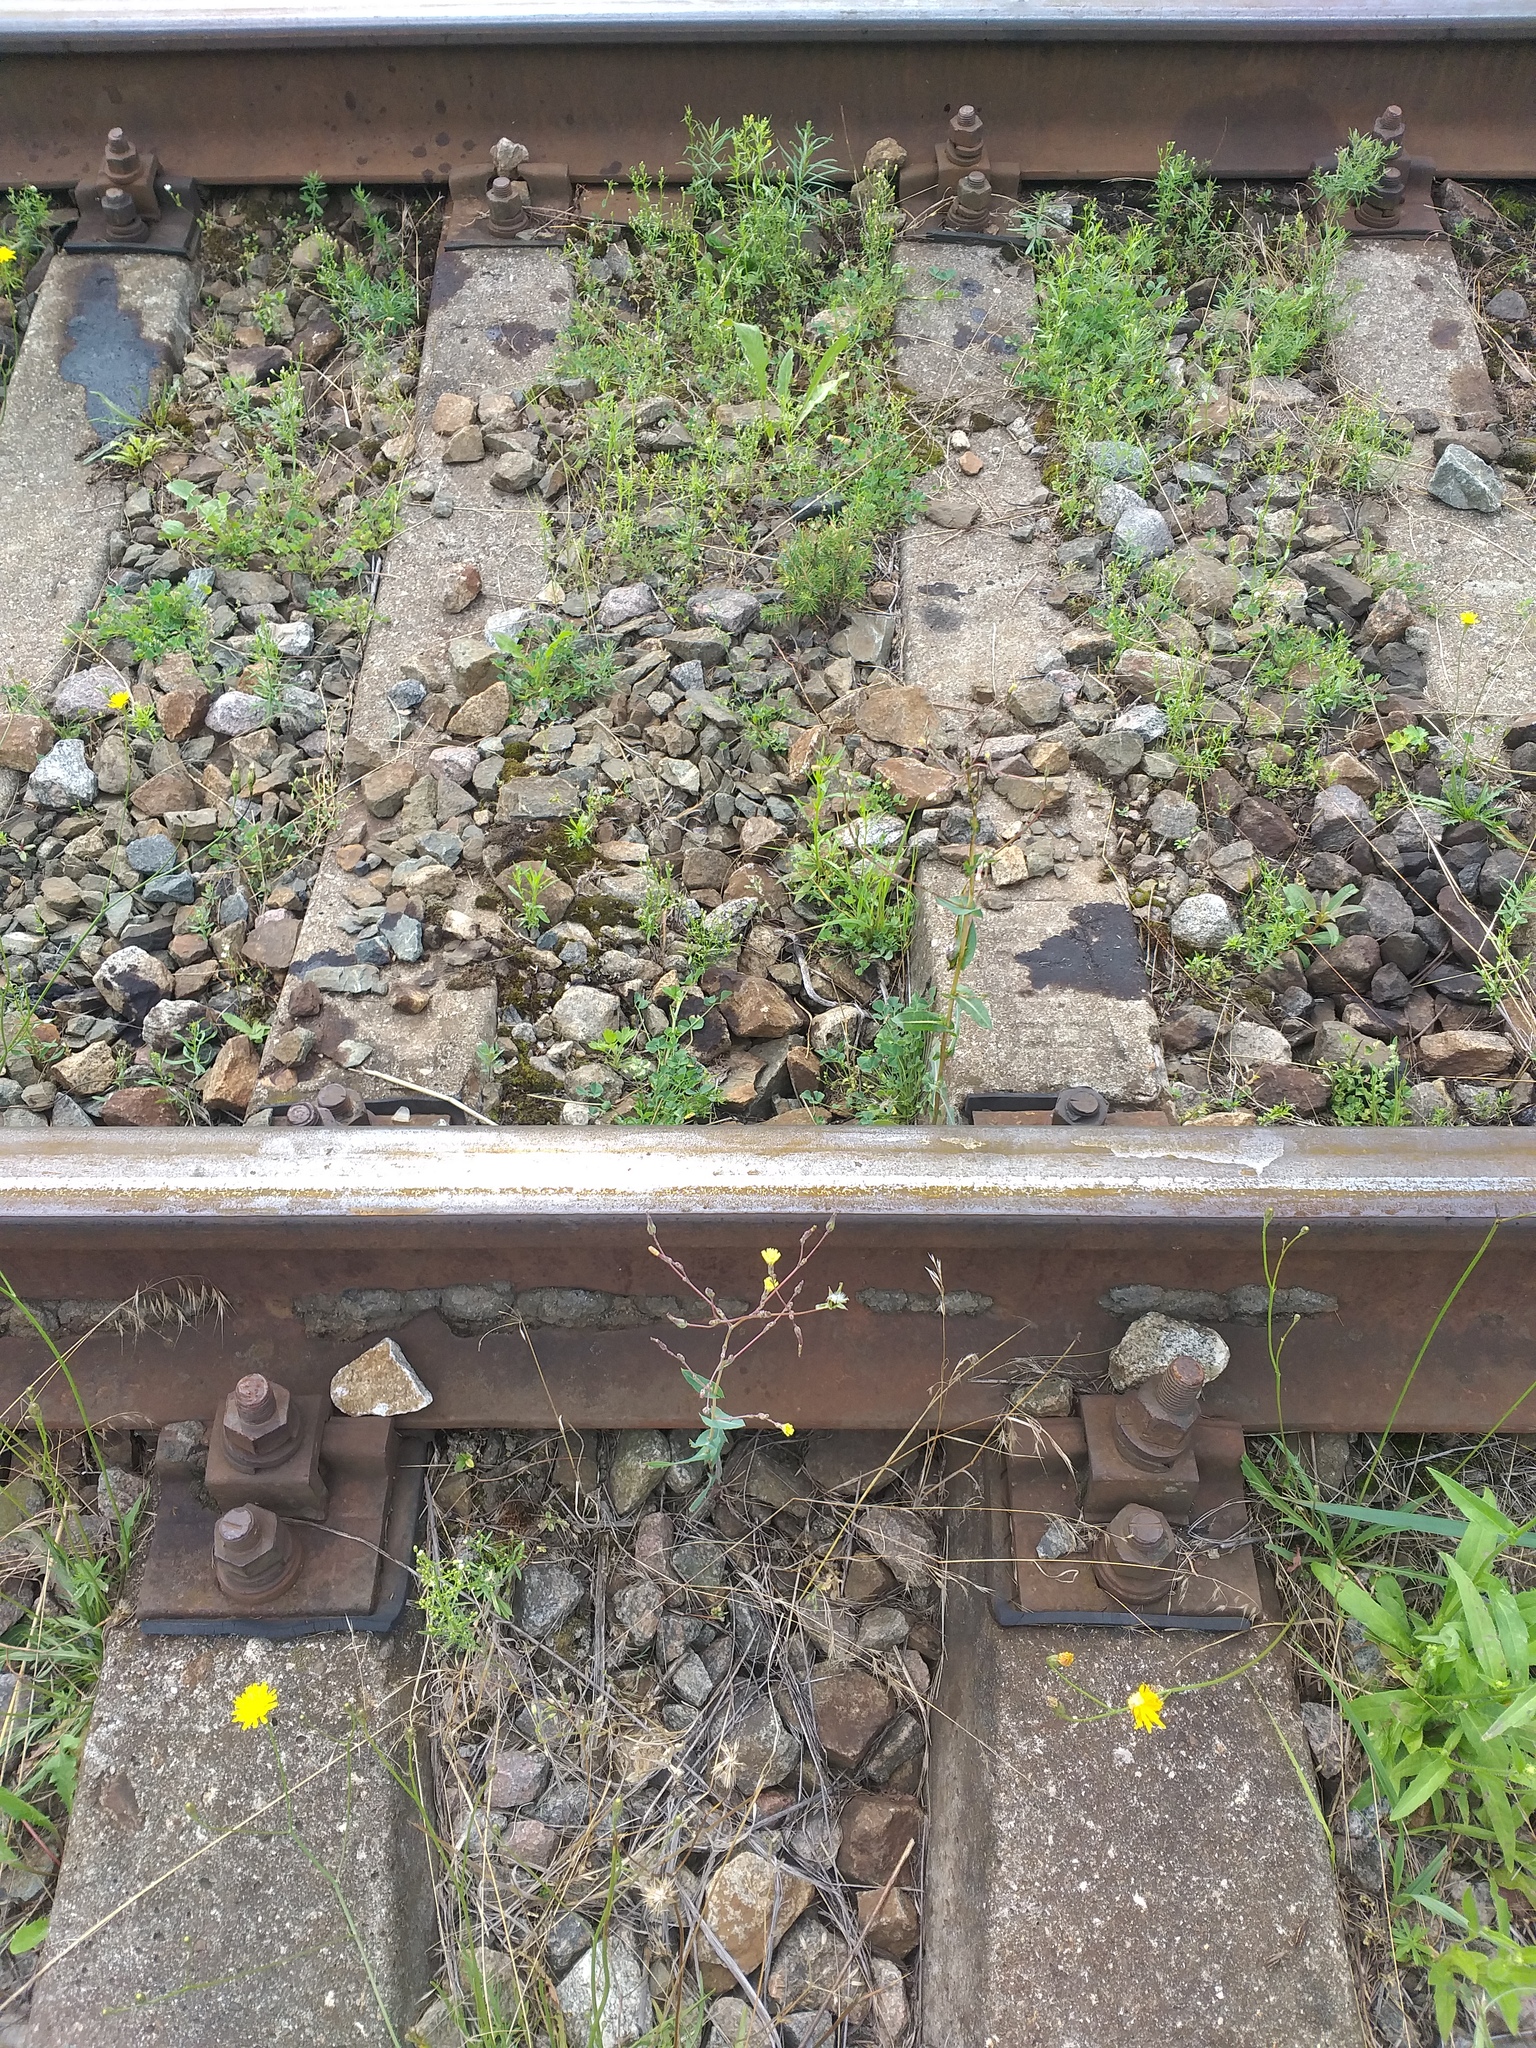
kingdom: Plantae
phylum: Tracheophyta
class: Magnoliopsida
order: Asterales
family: Asteraceae
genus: Lactuca
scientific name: Lactuca serriola
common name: Prickly lettuce
